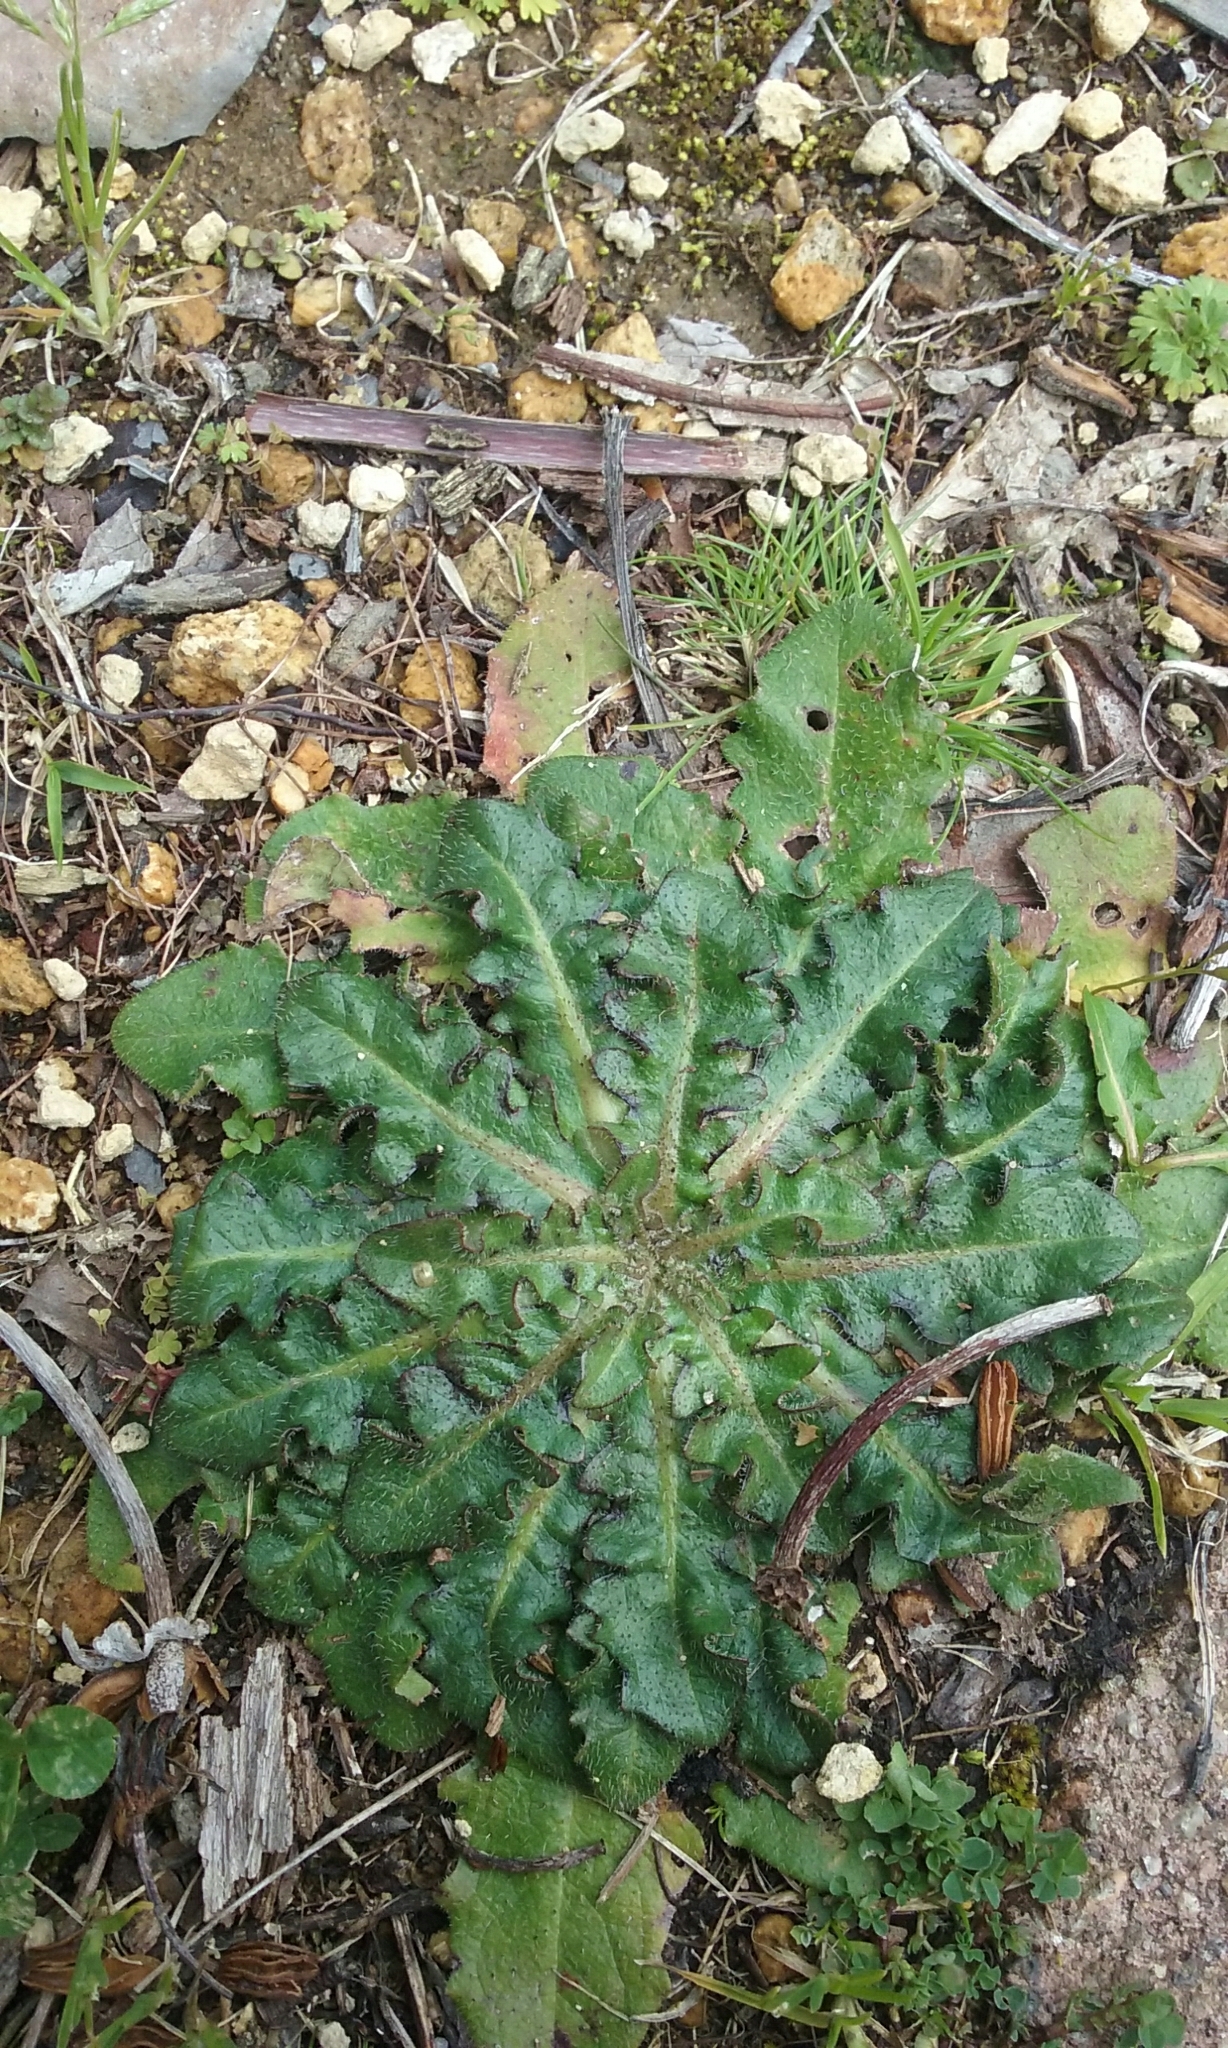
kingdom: Plantae
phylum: Tracheophyta
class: Magnoliopsida
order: Asterales
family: Asteraceae
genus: Hypochaeris
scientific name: Hypochaeris radicata
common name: Flatweed
